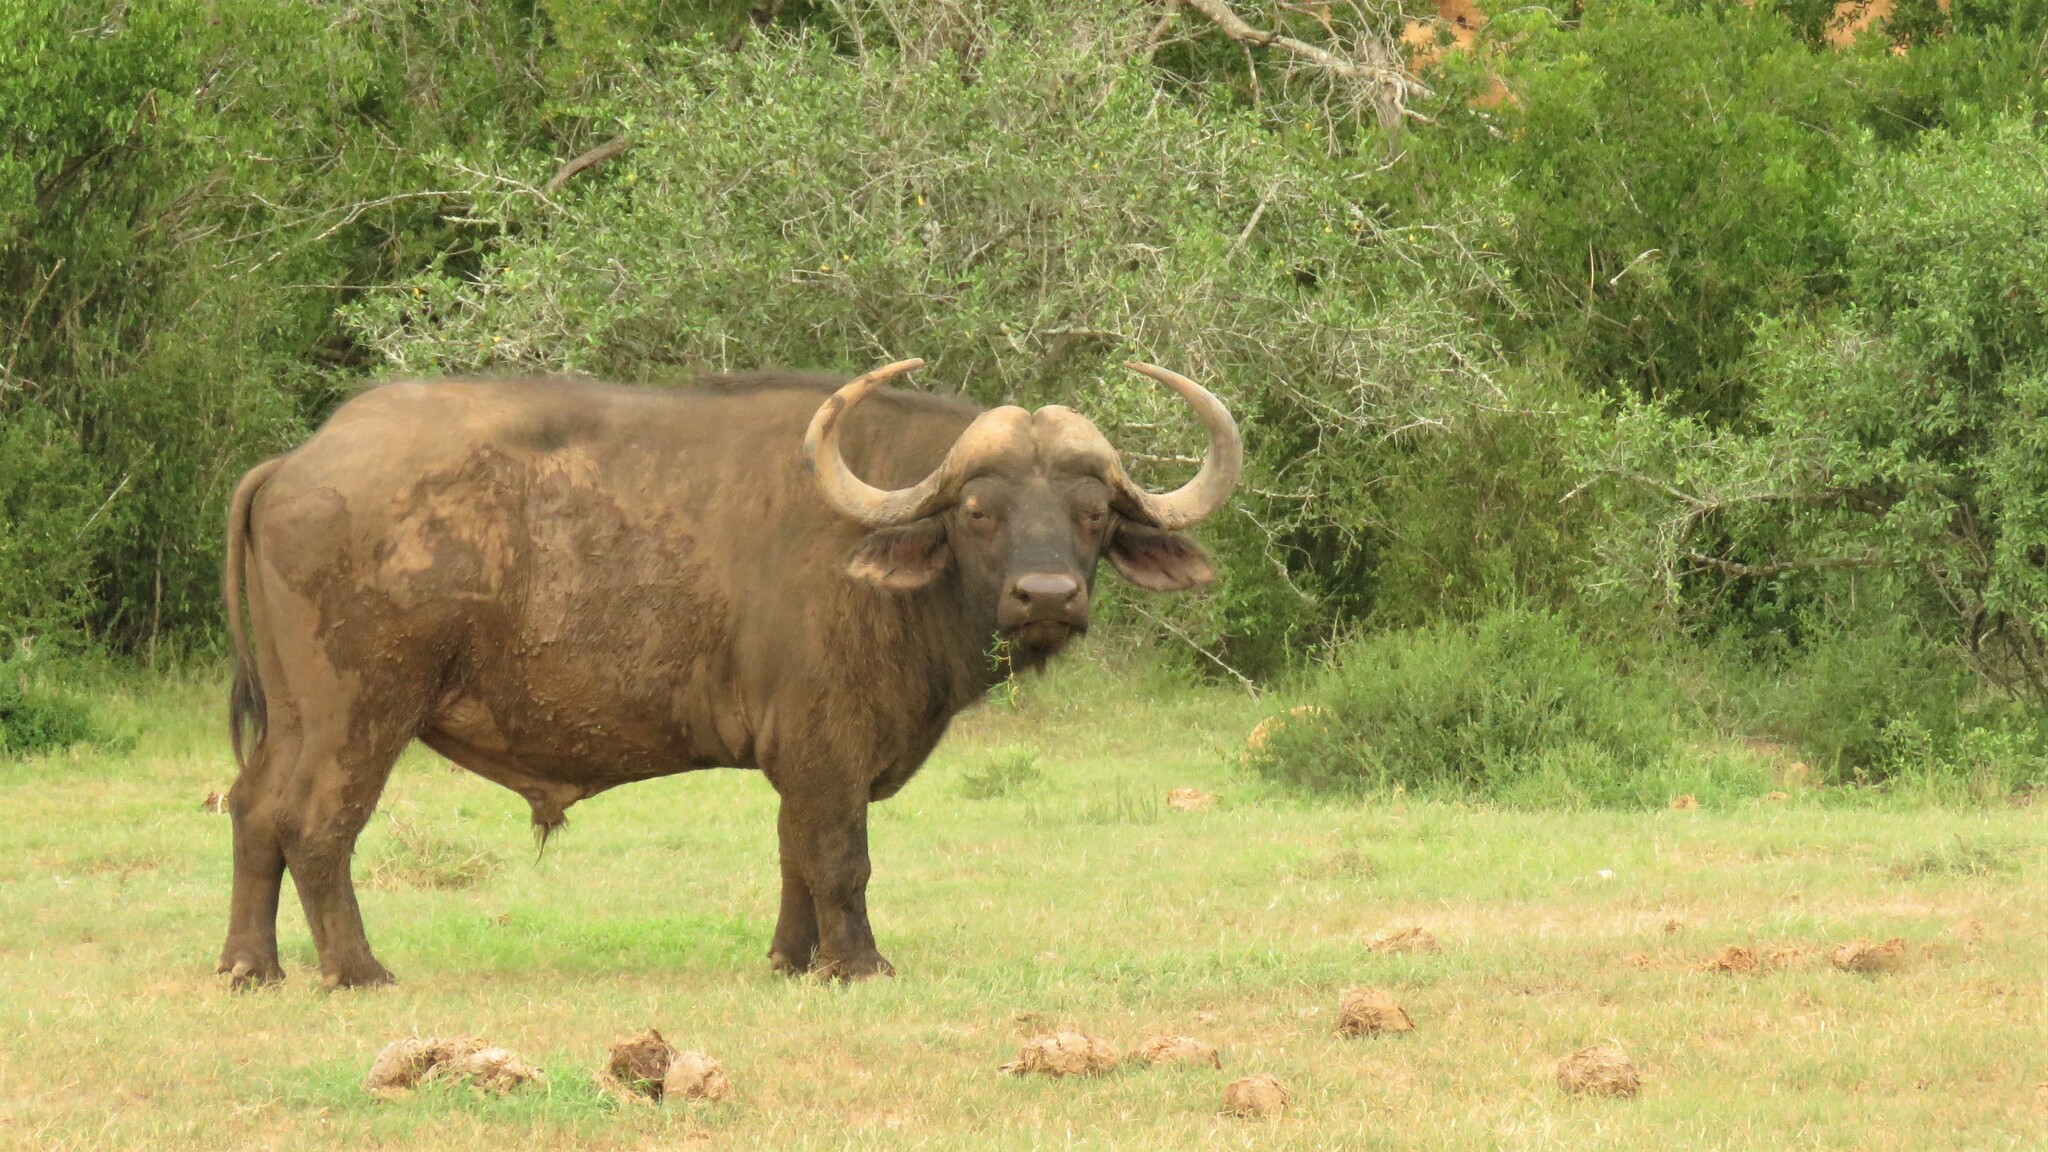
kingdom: Animalia
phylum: Chordata
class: Mammalia
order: Artiodactyla
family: Bovidae
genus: Syncerus
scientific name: Syncerus caffer
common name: African buffalo
